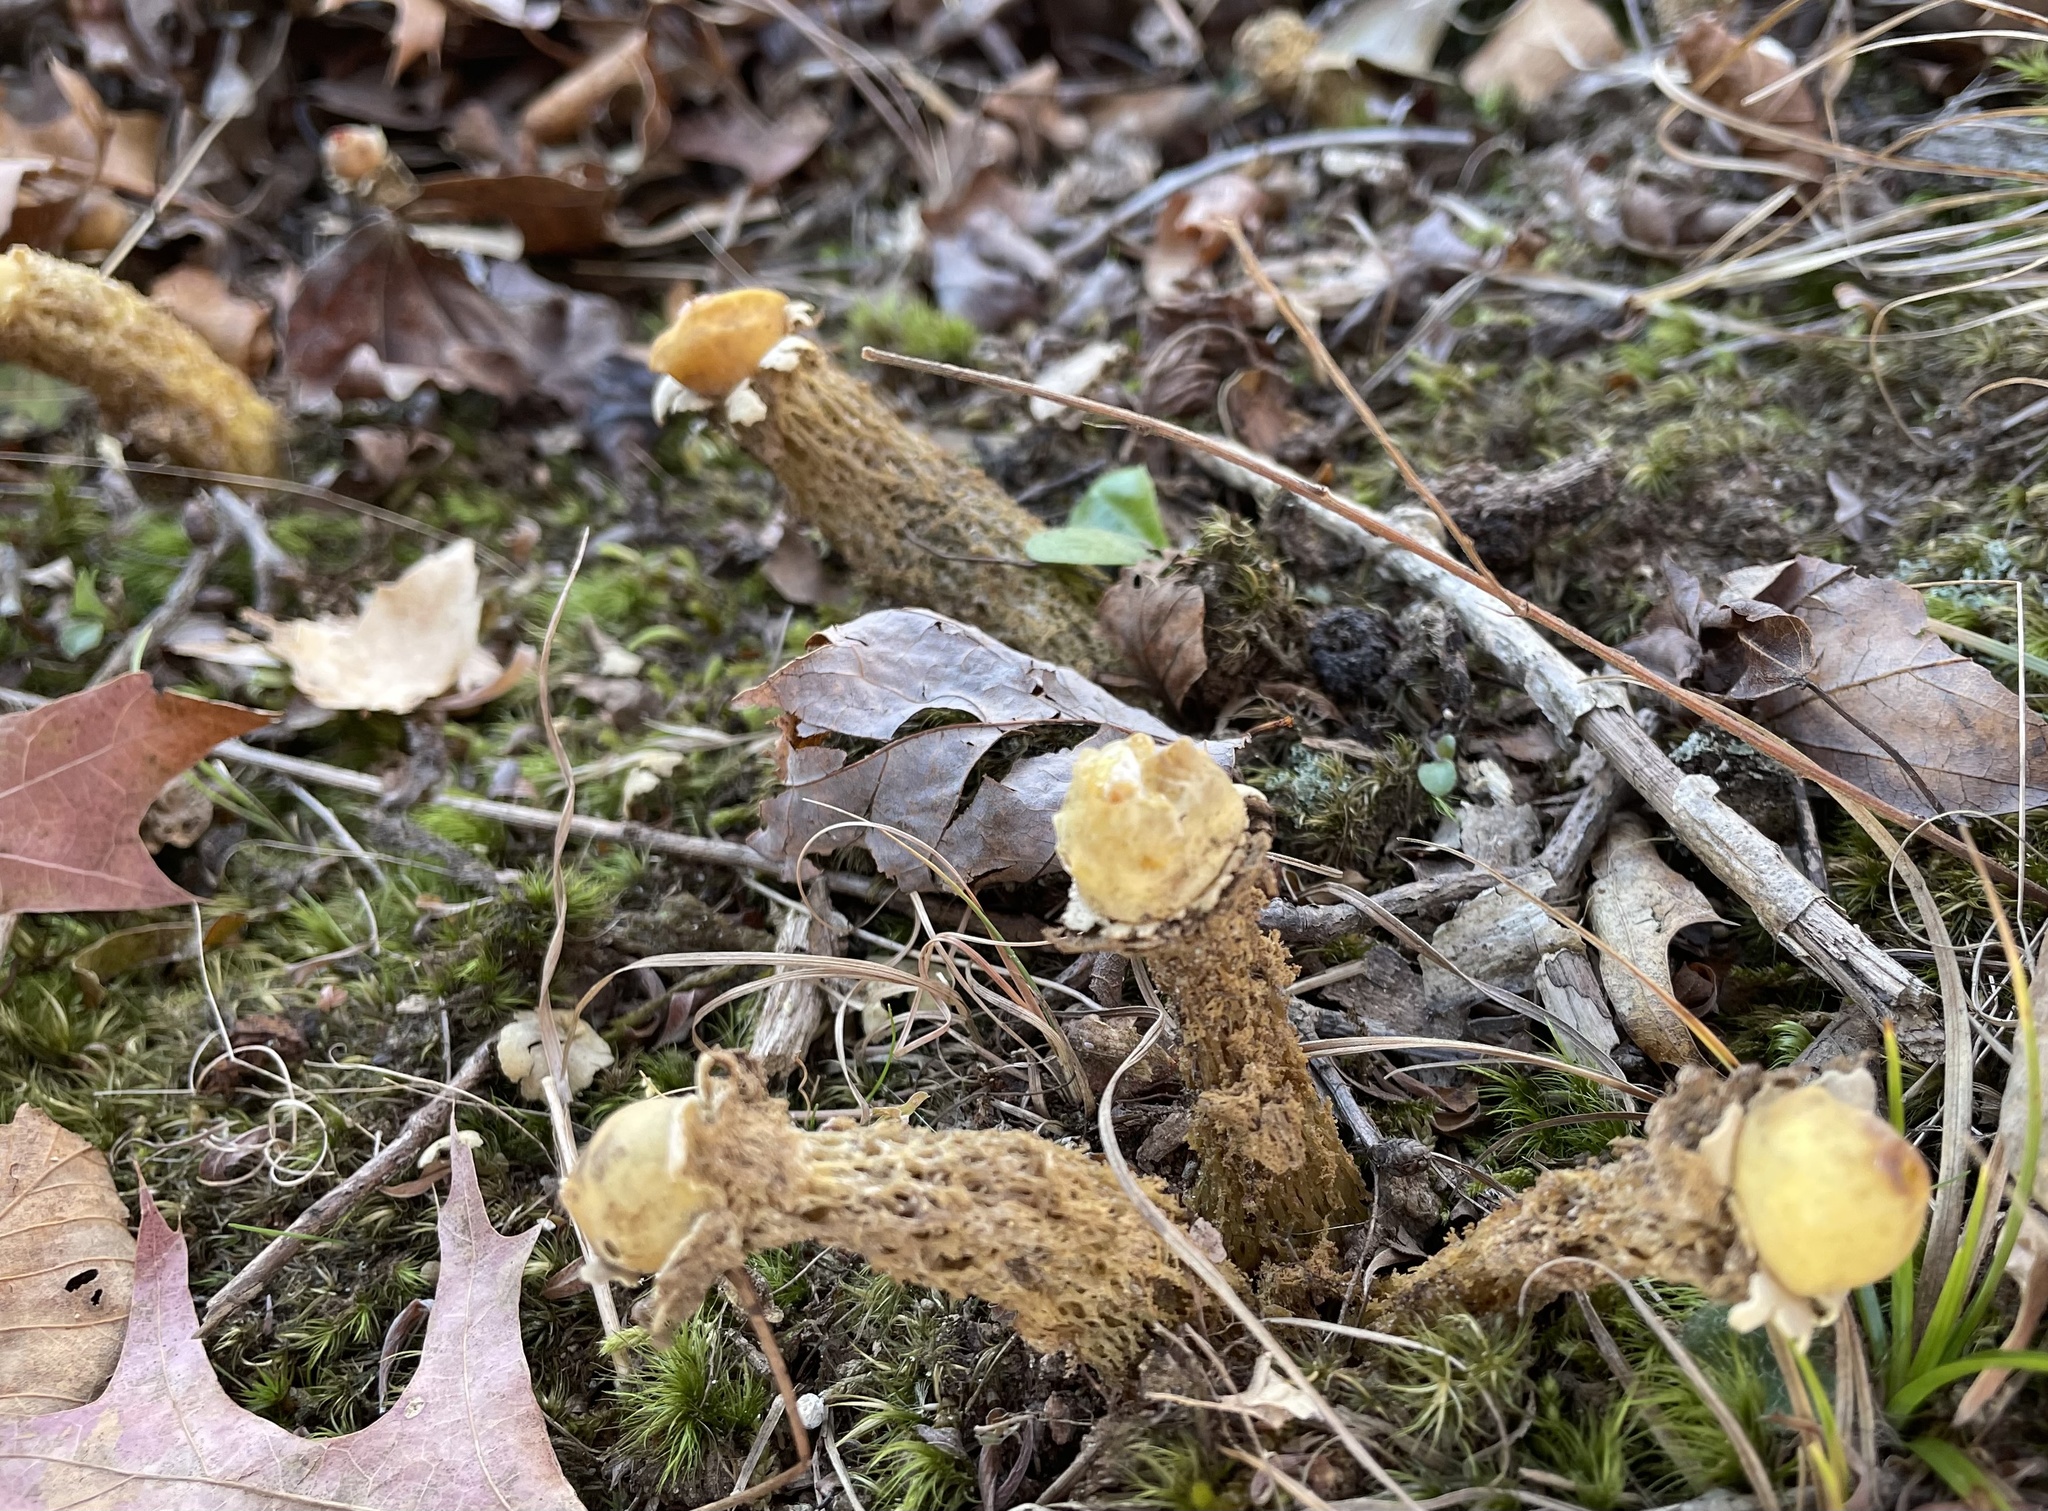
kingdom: Fungi
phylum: Basidiomycota
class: Agaricomycetes
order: Boletales
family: Calostomataceae
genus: Calostoma
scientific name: Calostoma lutescens
